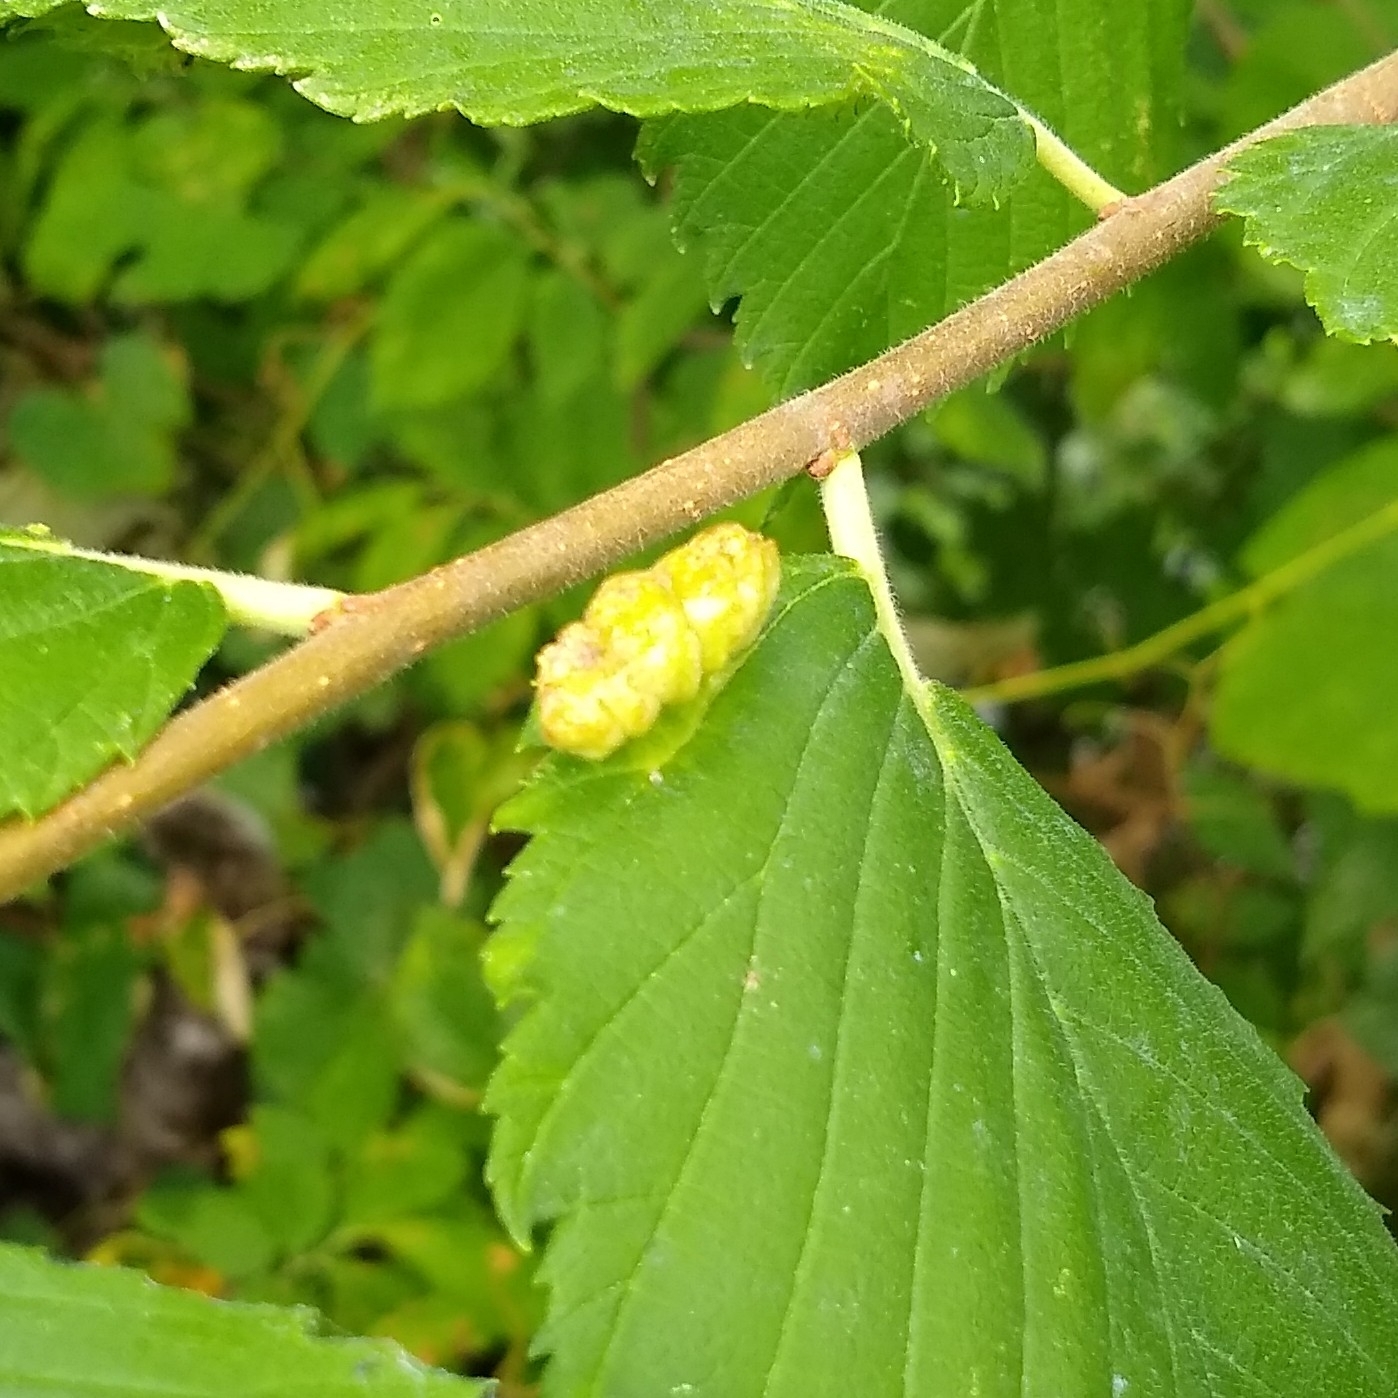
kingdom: Animalia
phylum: Arthropoda
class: Insecta
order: Hemiptera
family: Aphididae
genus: Colopha
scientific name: Colopha ulmicola
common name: Elm cockscombgall aphid
